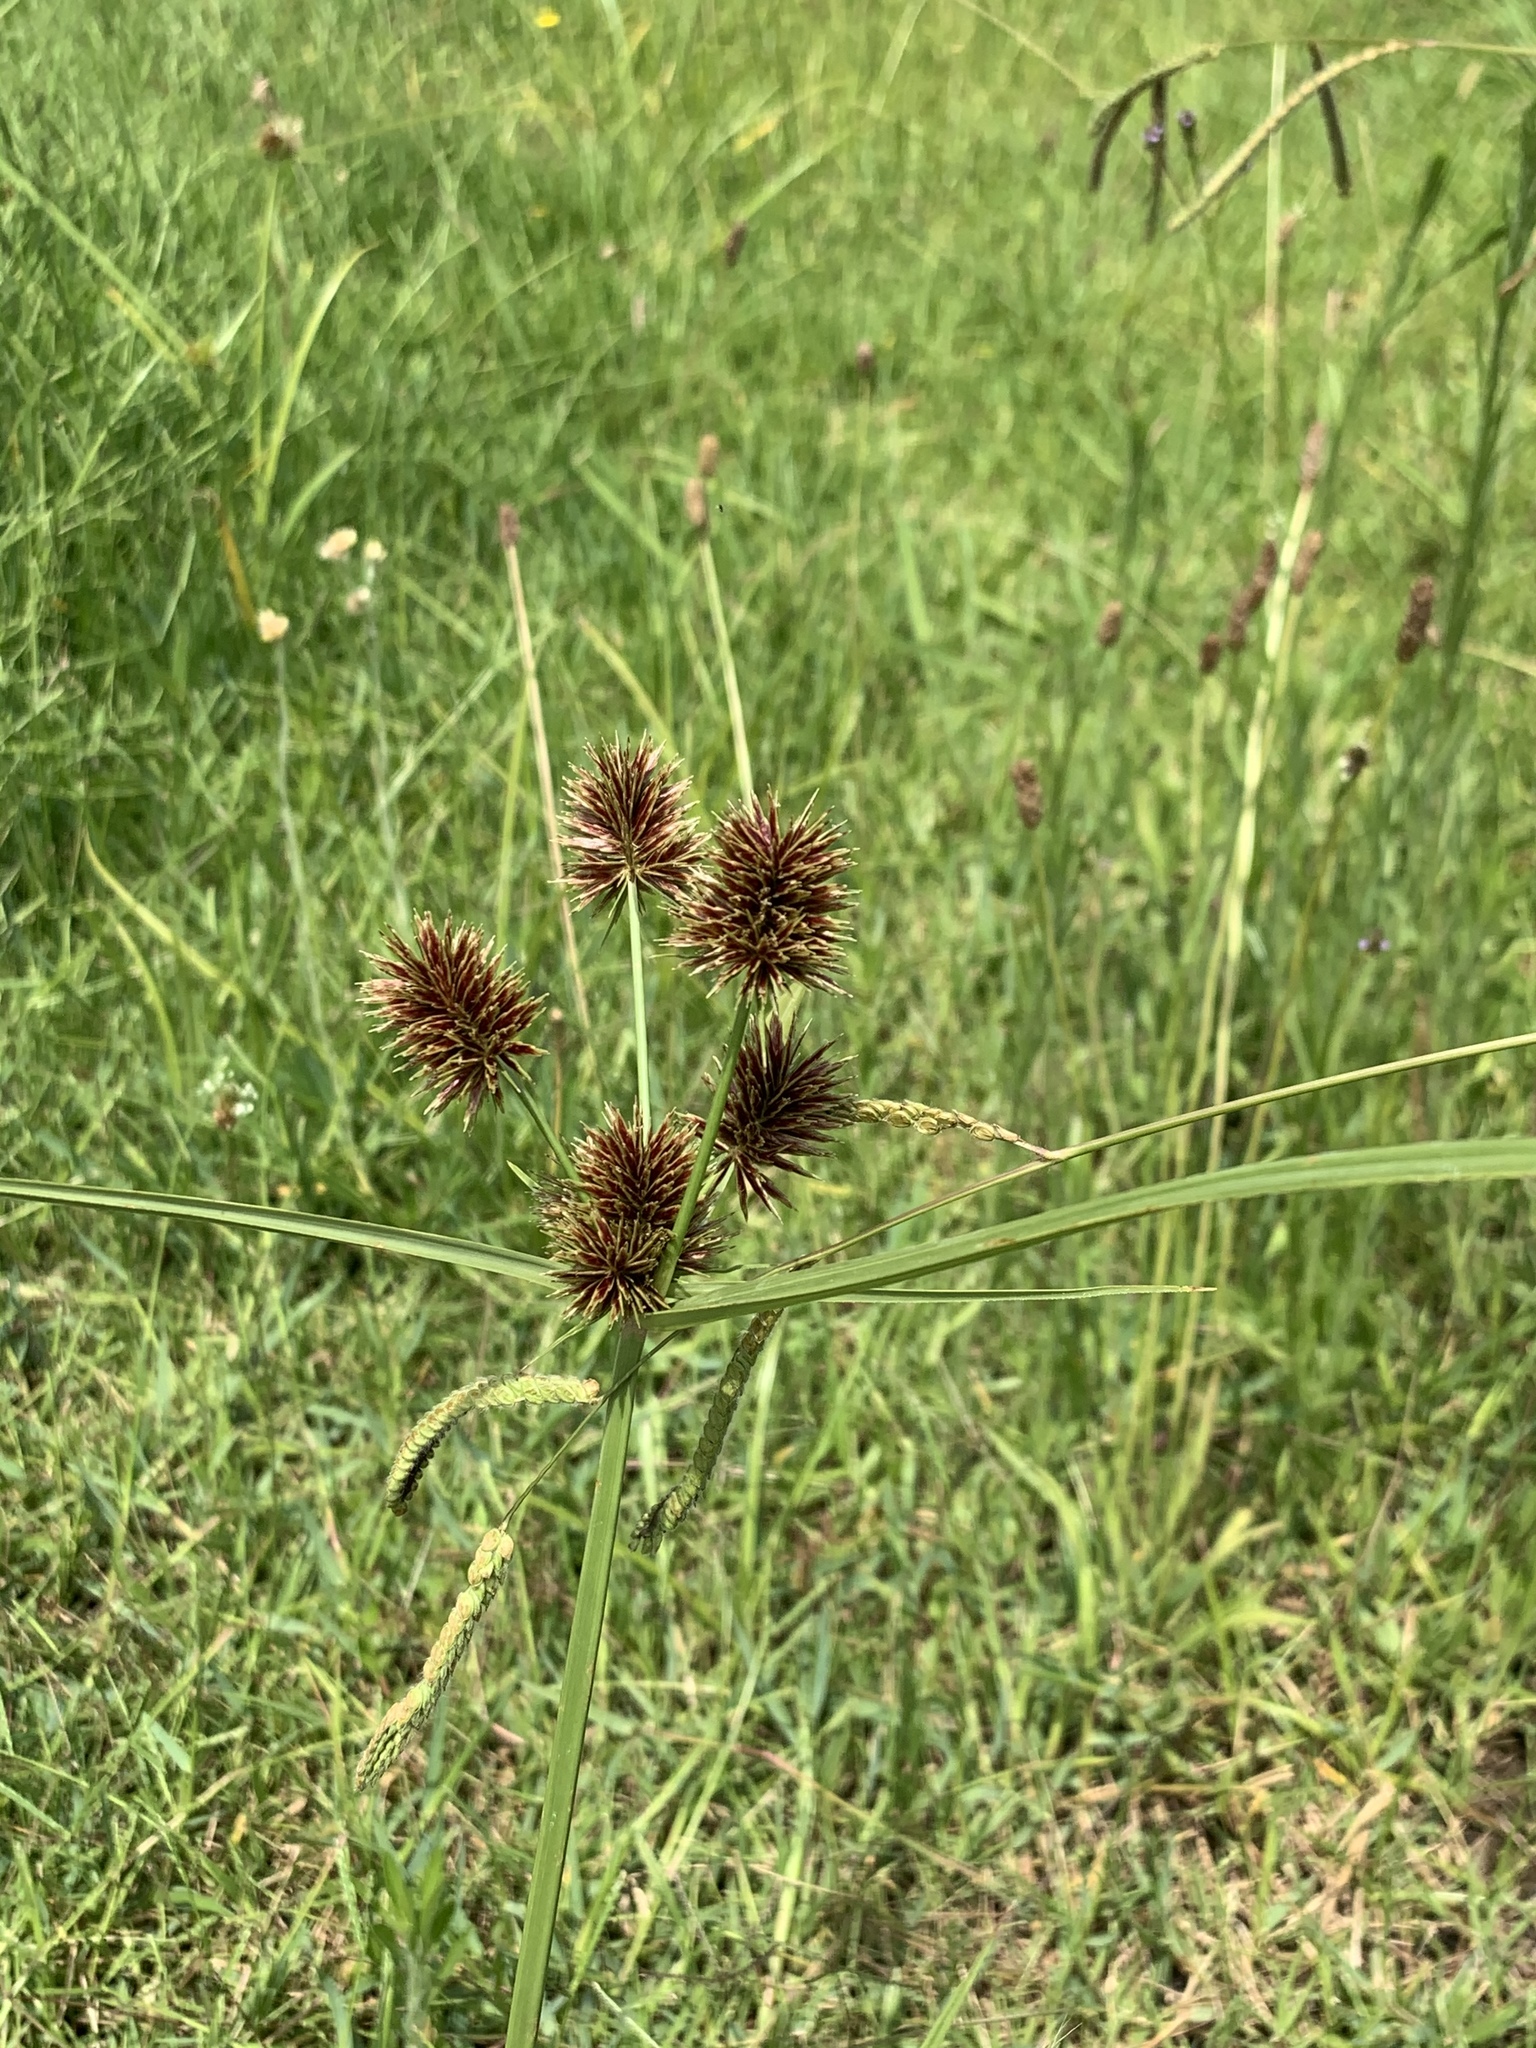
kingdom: Plantae
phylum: Tracheophyta
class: Liliopsida
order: Poales
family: Cyperaceae
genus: Cyperus
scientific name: Cyperus congestus
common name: Dense flat sedge
